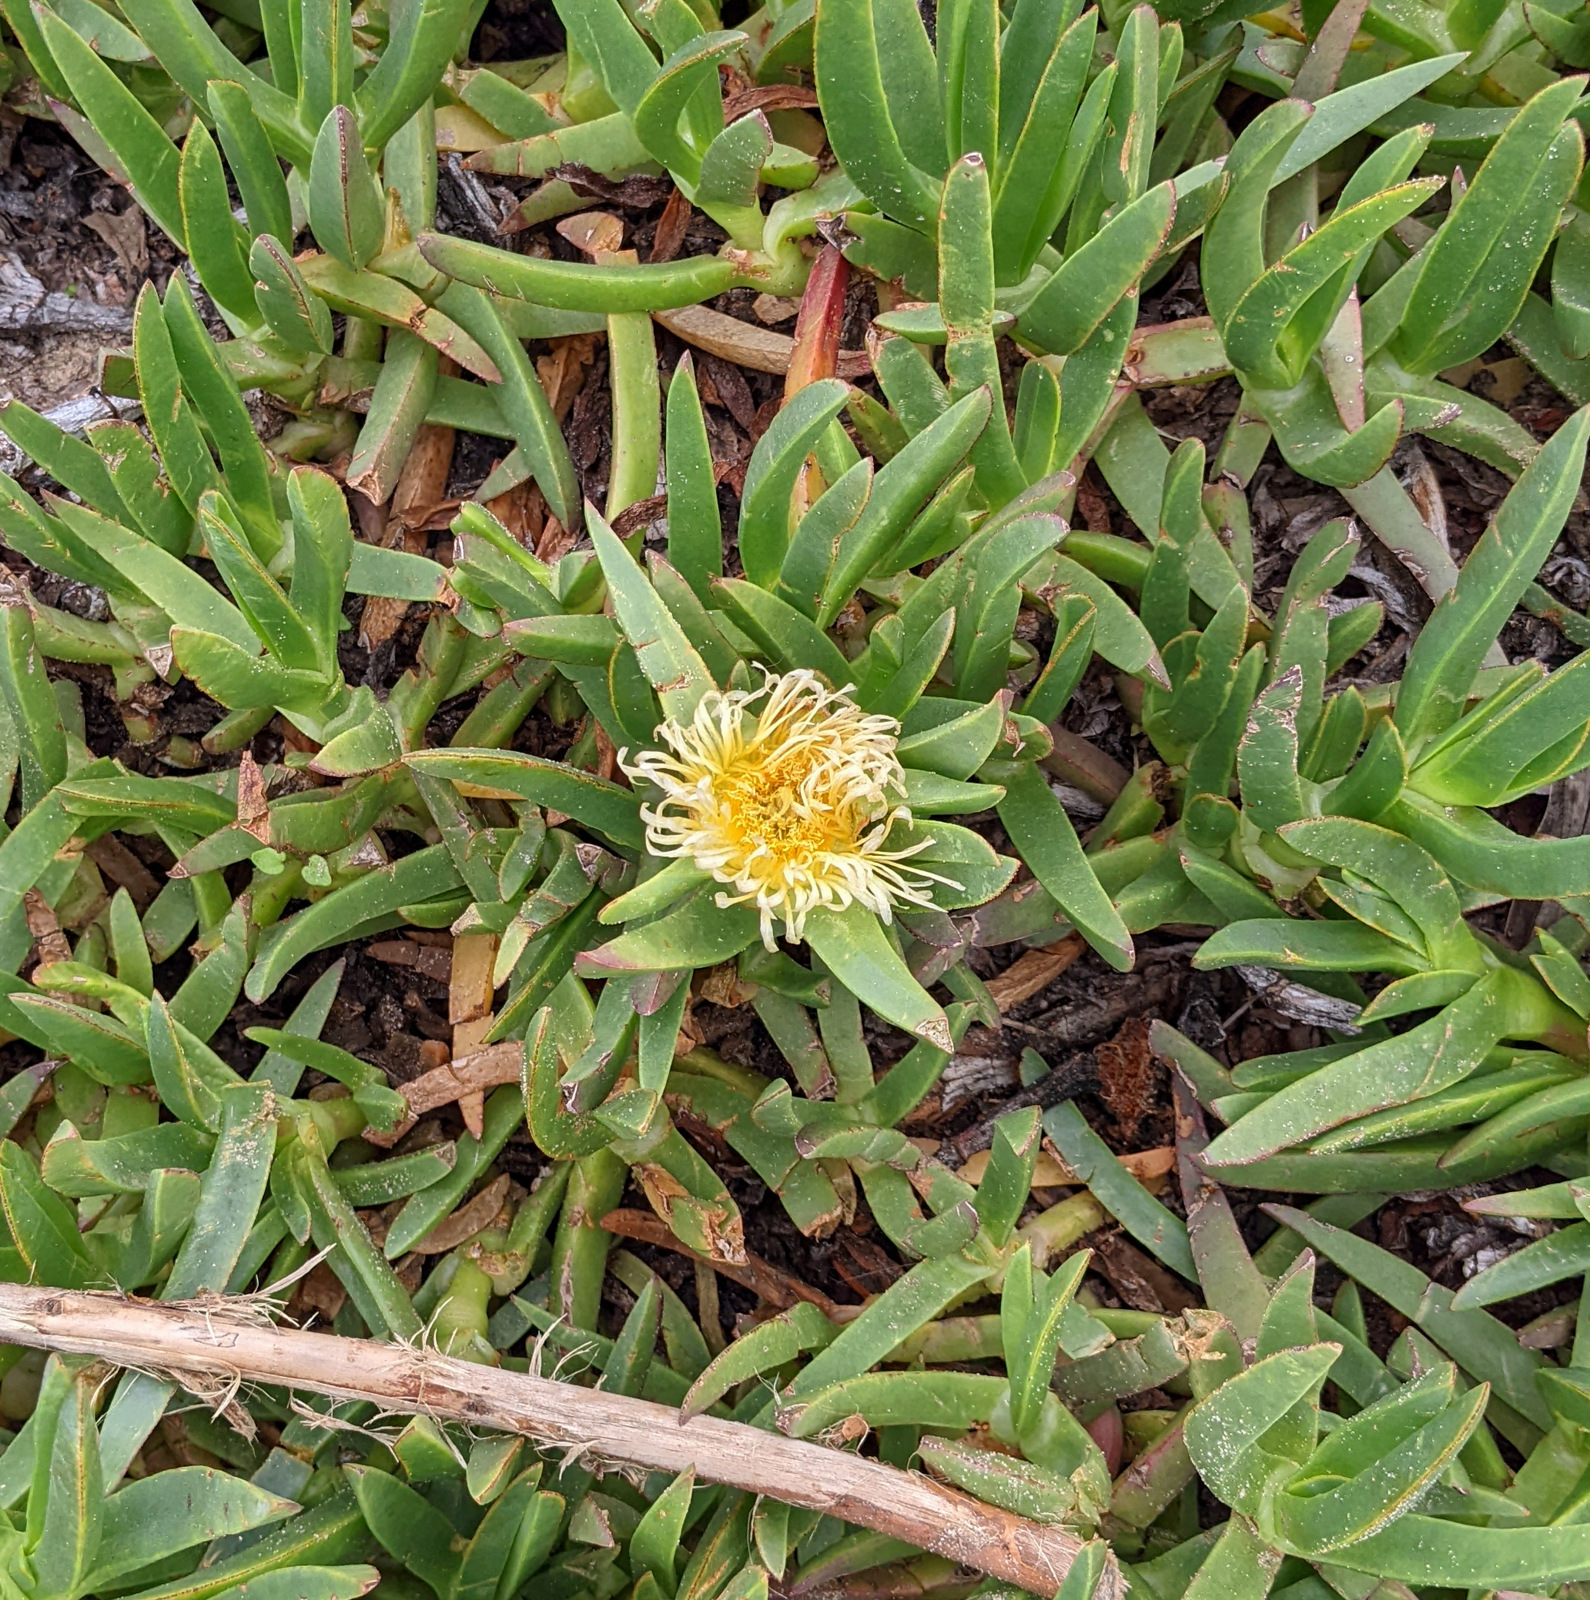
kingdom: Plantae
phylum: Tracheophyta
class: Magnoliopsida
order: Caryophyllales
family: Aizoaceae
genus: Carpobrotus
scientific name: Carpobrotus edulis
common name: Hottentot-fig
